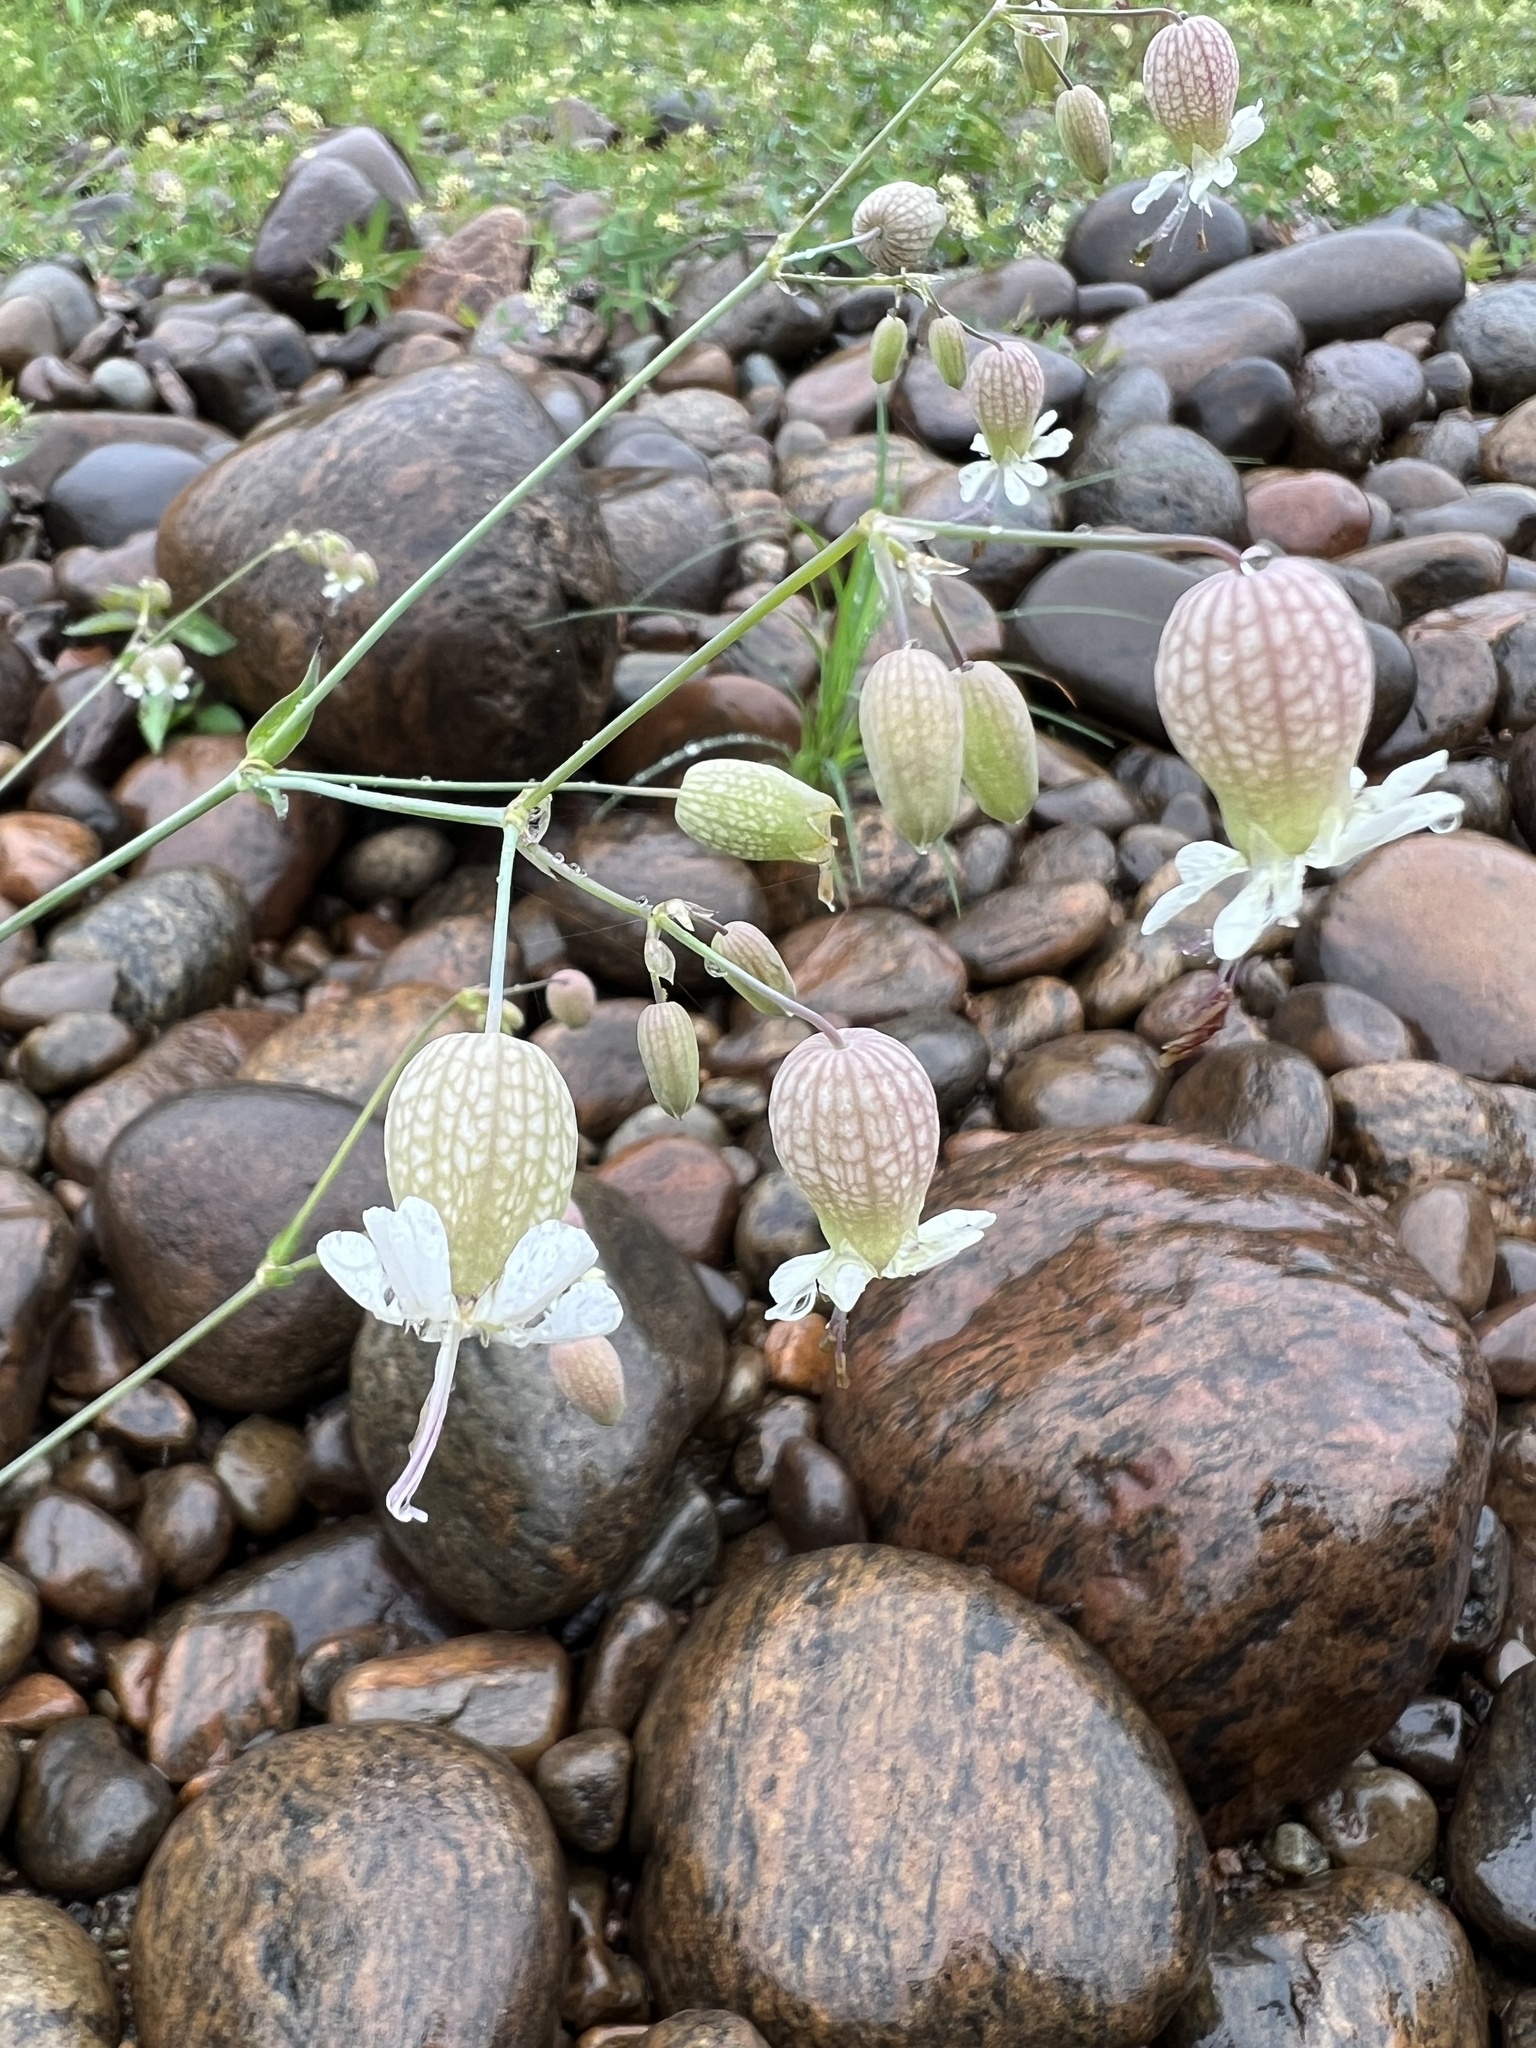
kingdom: Plantae
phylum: Tracheophyta
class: Magnoliopsida
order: Caryophyllales
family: Caryophyllaceae
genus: Silene
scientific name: Silene vulgaris
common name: Bladder campion
